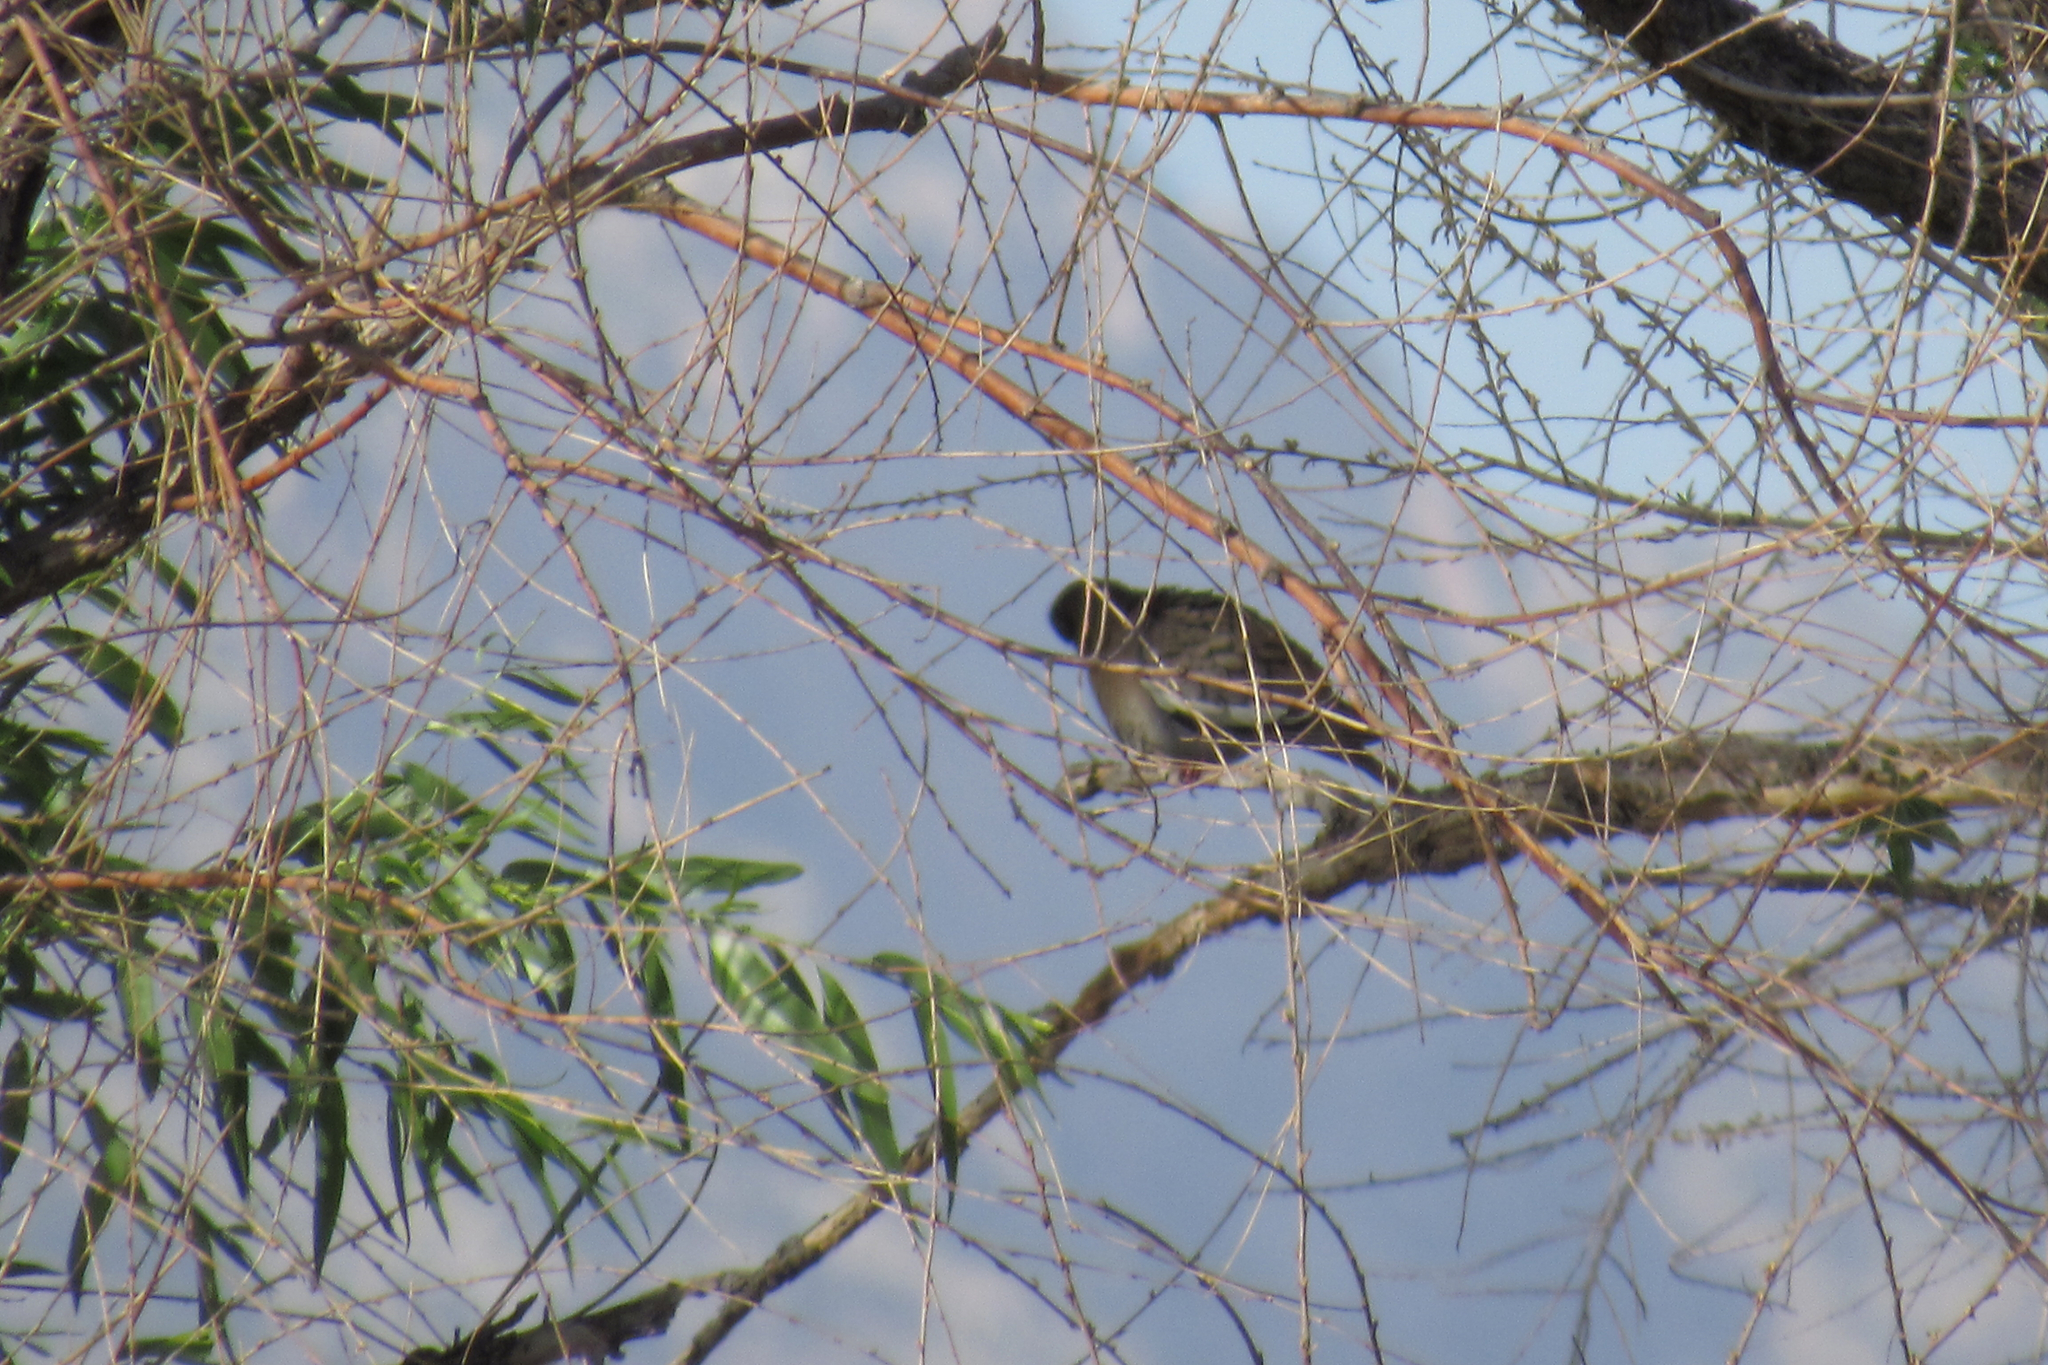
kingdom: Animalia
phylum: Chordata
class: Aves
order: Columbiformes
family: Columbidae
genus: Zenaida
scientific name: Zenaida asiatica
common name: White-winged dove
